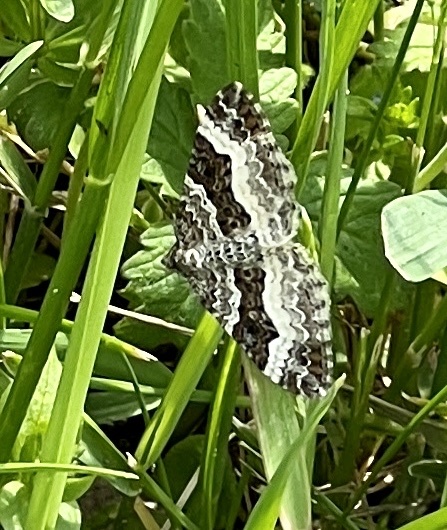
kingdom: Animalia
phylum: Arthropoda
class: Insecta
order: Lepidoptera
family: Geometridae
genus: Epirrhoe
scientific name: Epirrhoe alternata
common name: Common carpet
